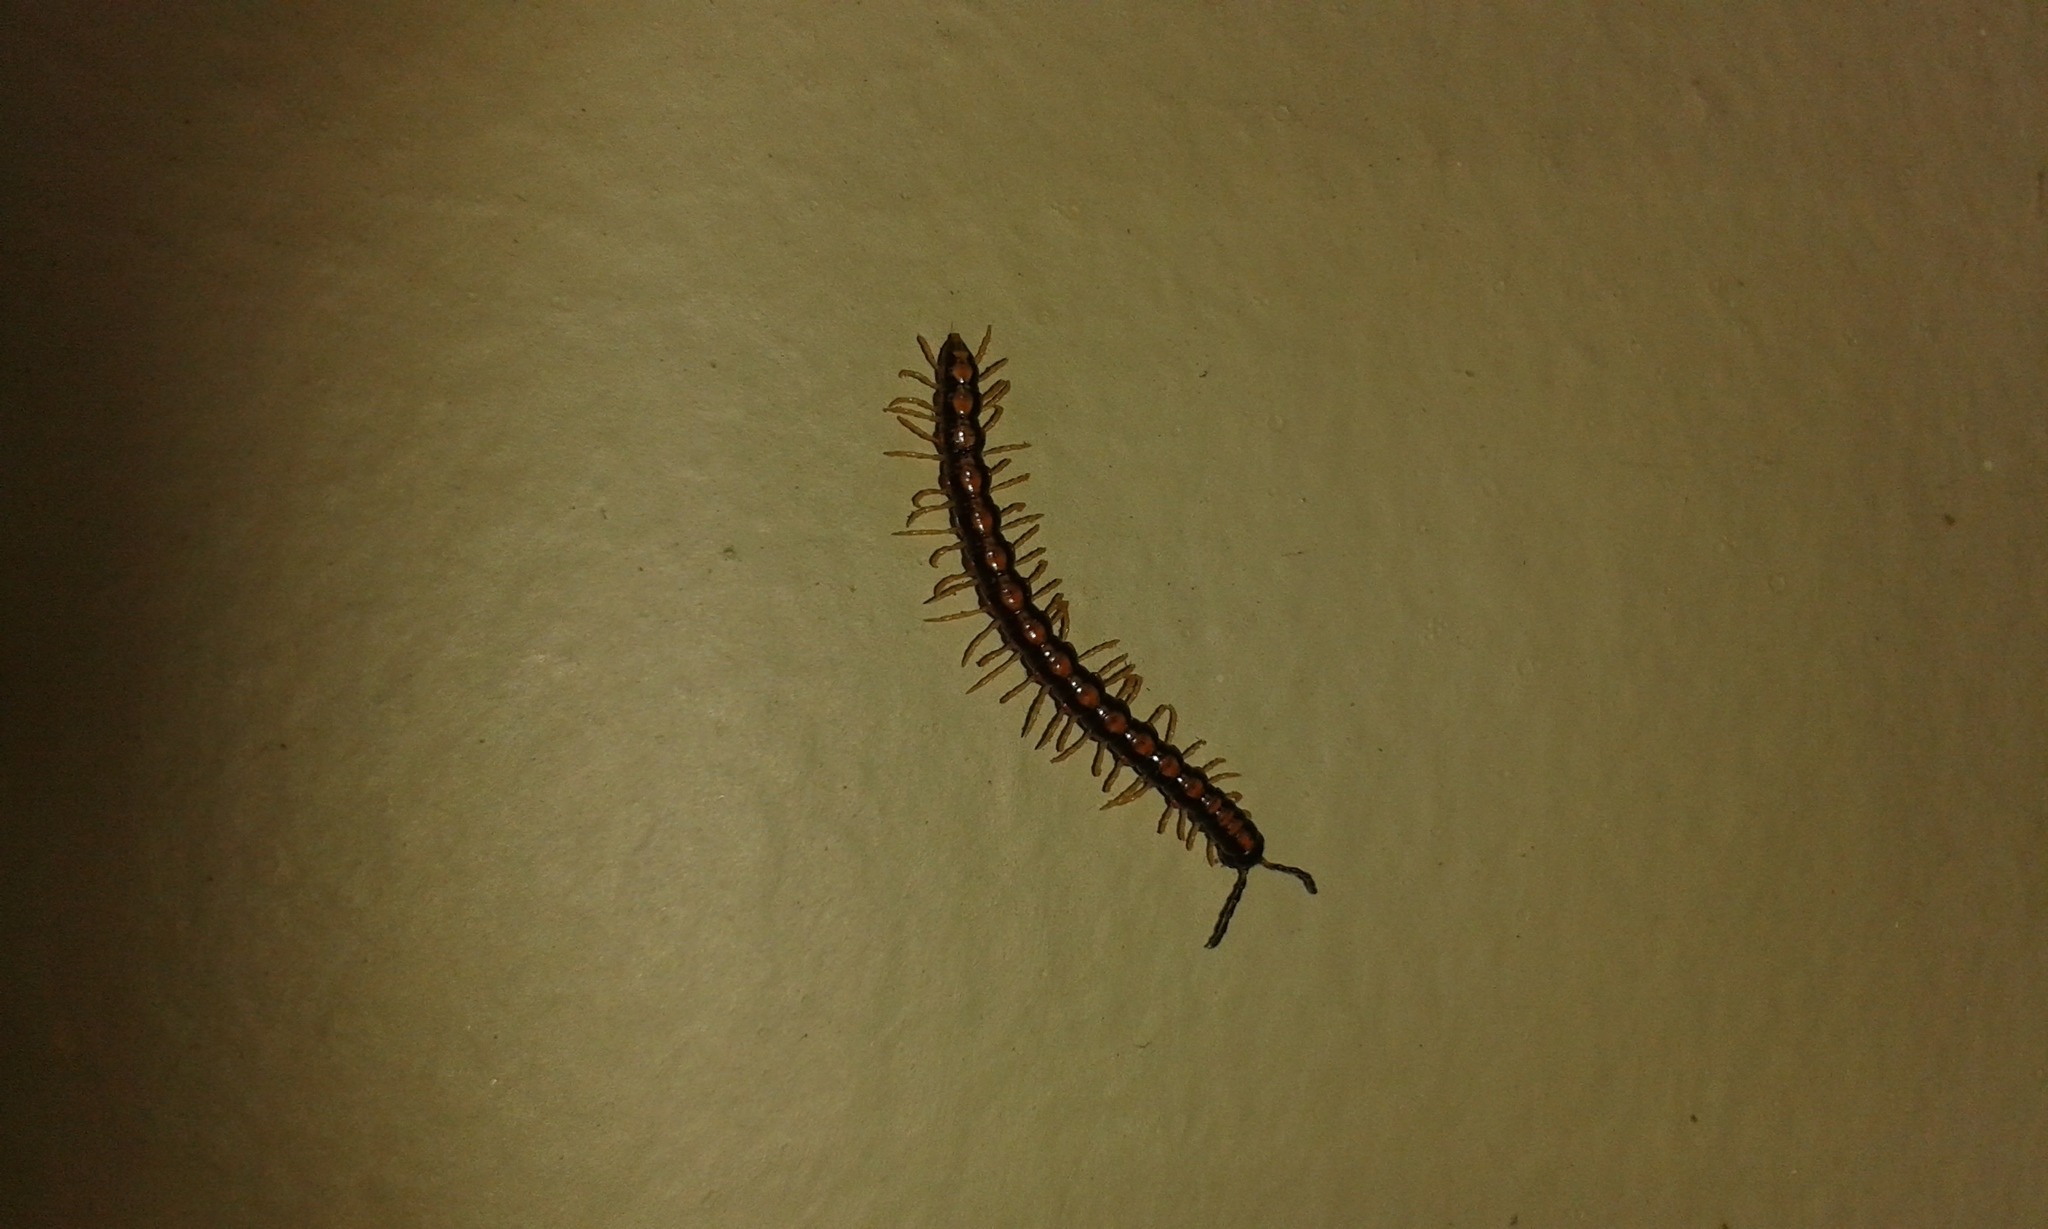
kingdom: Animalia
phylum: Arthropoda
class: Diplopoda
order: Polydesmida
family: Paradoxosomatidae
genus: Helicorthomorpha
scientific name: Helicorthomorpha holstii
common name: Millipede
